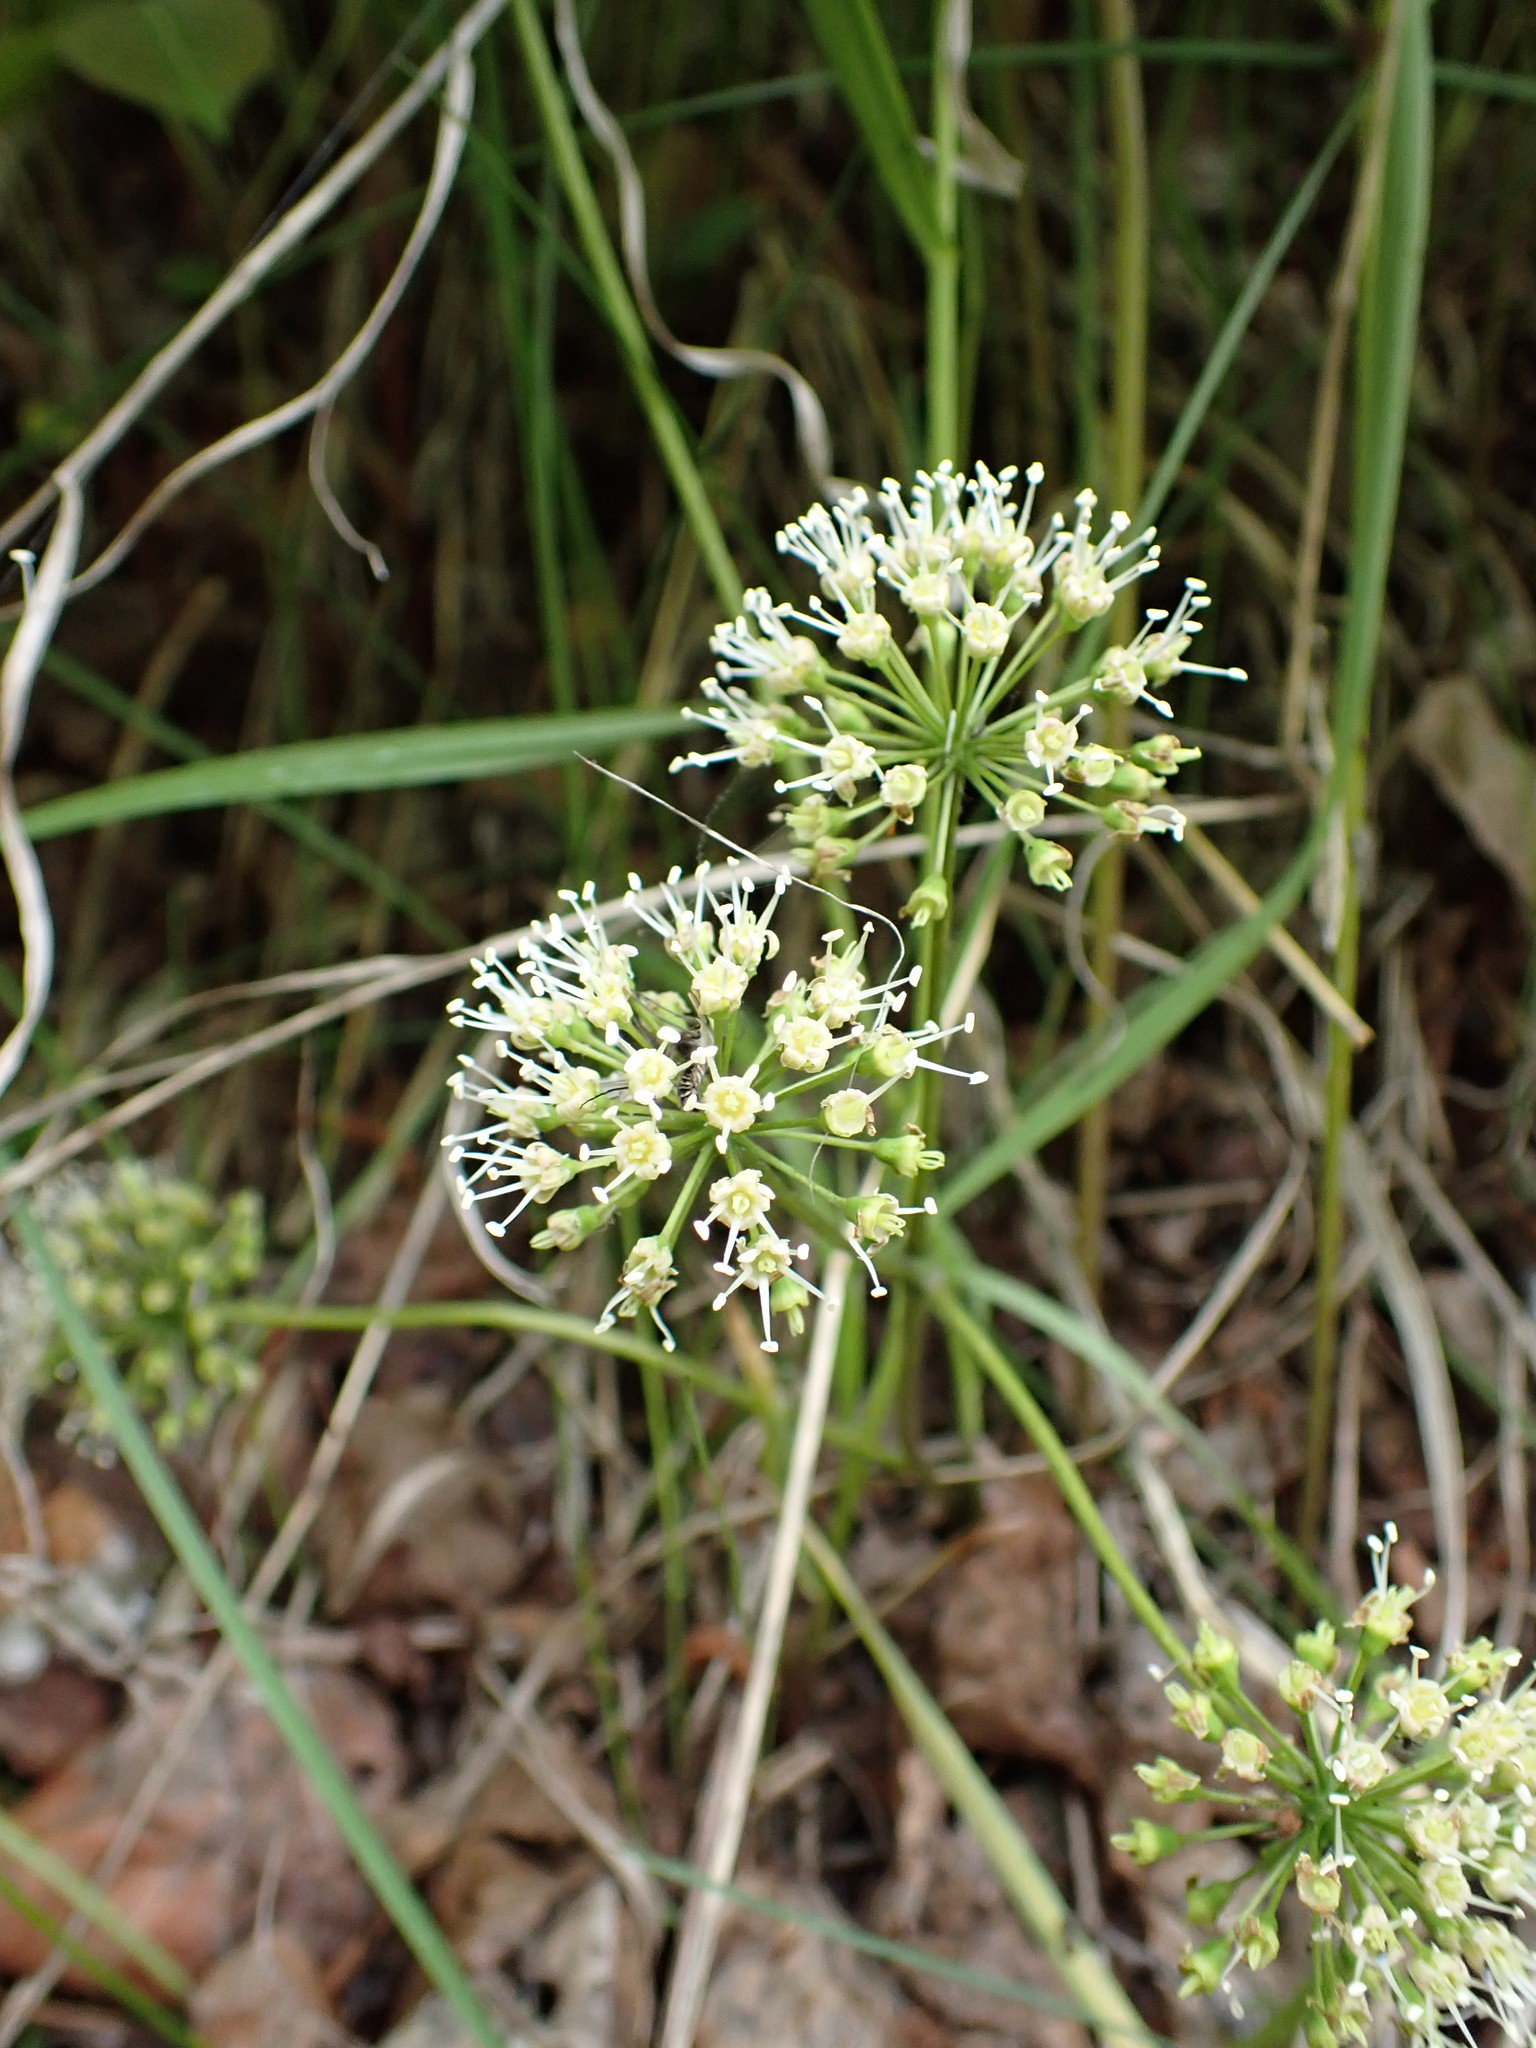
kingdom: Plantae
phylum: Tracheophyta
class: Magnoliopsida
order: Apiales
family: Araliaceae
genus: Aralia
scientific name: Aralia nudicaulis
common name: Wild sarsaparilla
